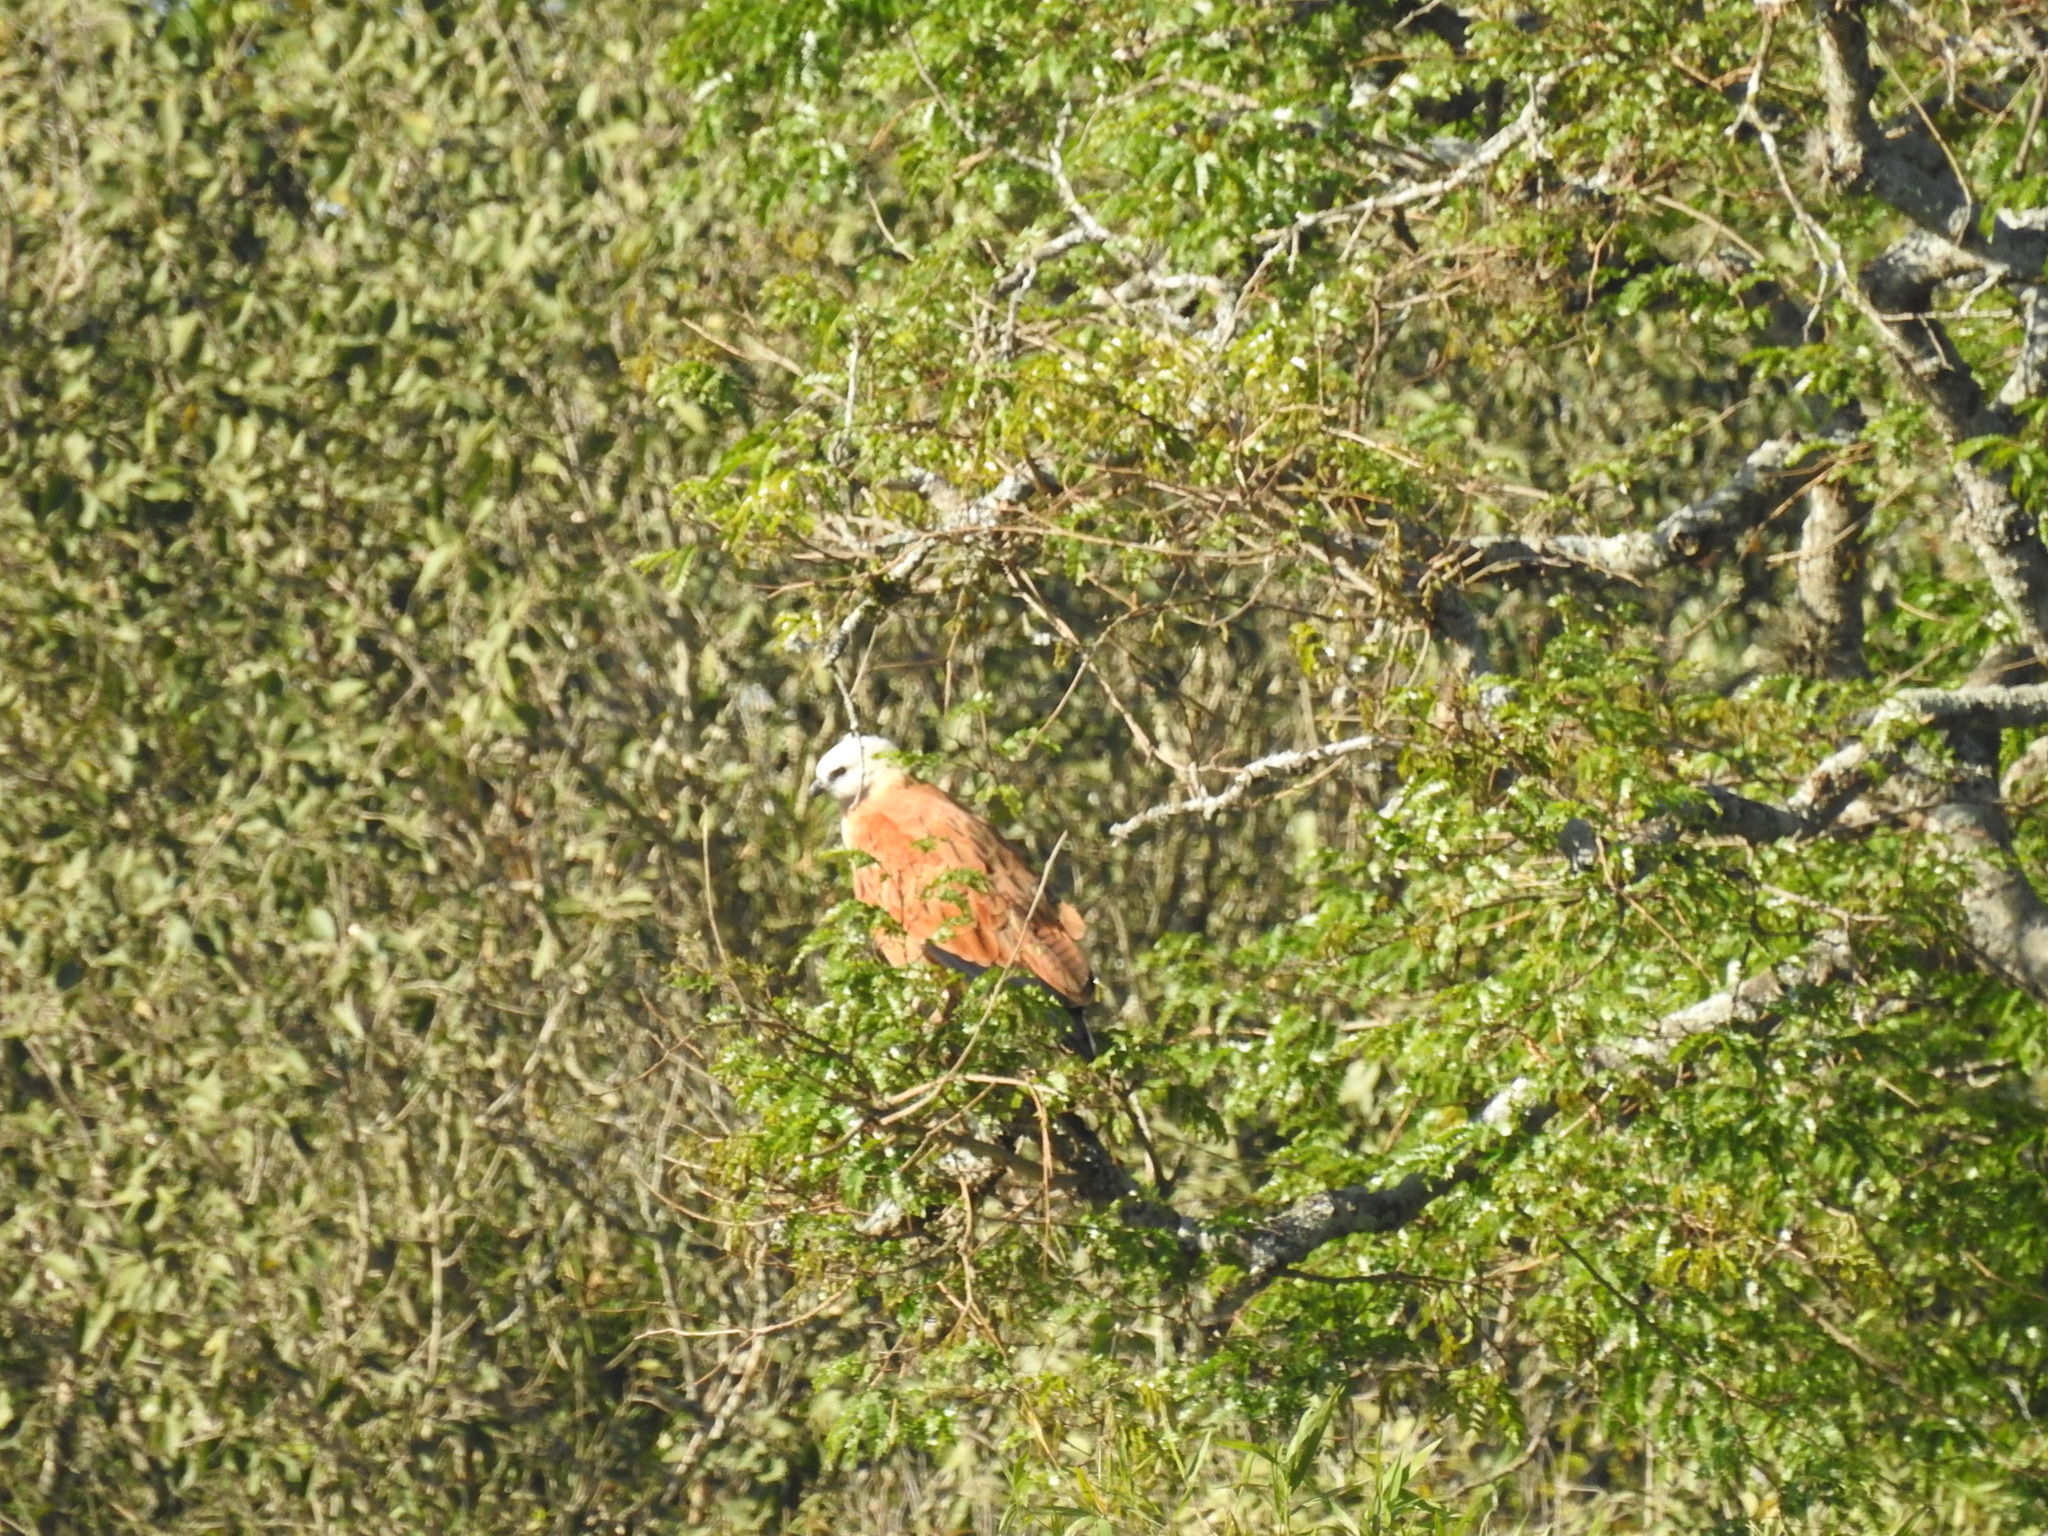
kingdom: Animalia
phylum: Chordata
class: Aves
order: Accipitriformes
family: Accipitridae
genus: Busarellus
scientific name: Busarellus nigricollis
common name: Black-collared hawk
